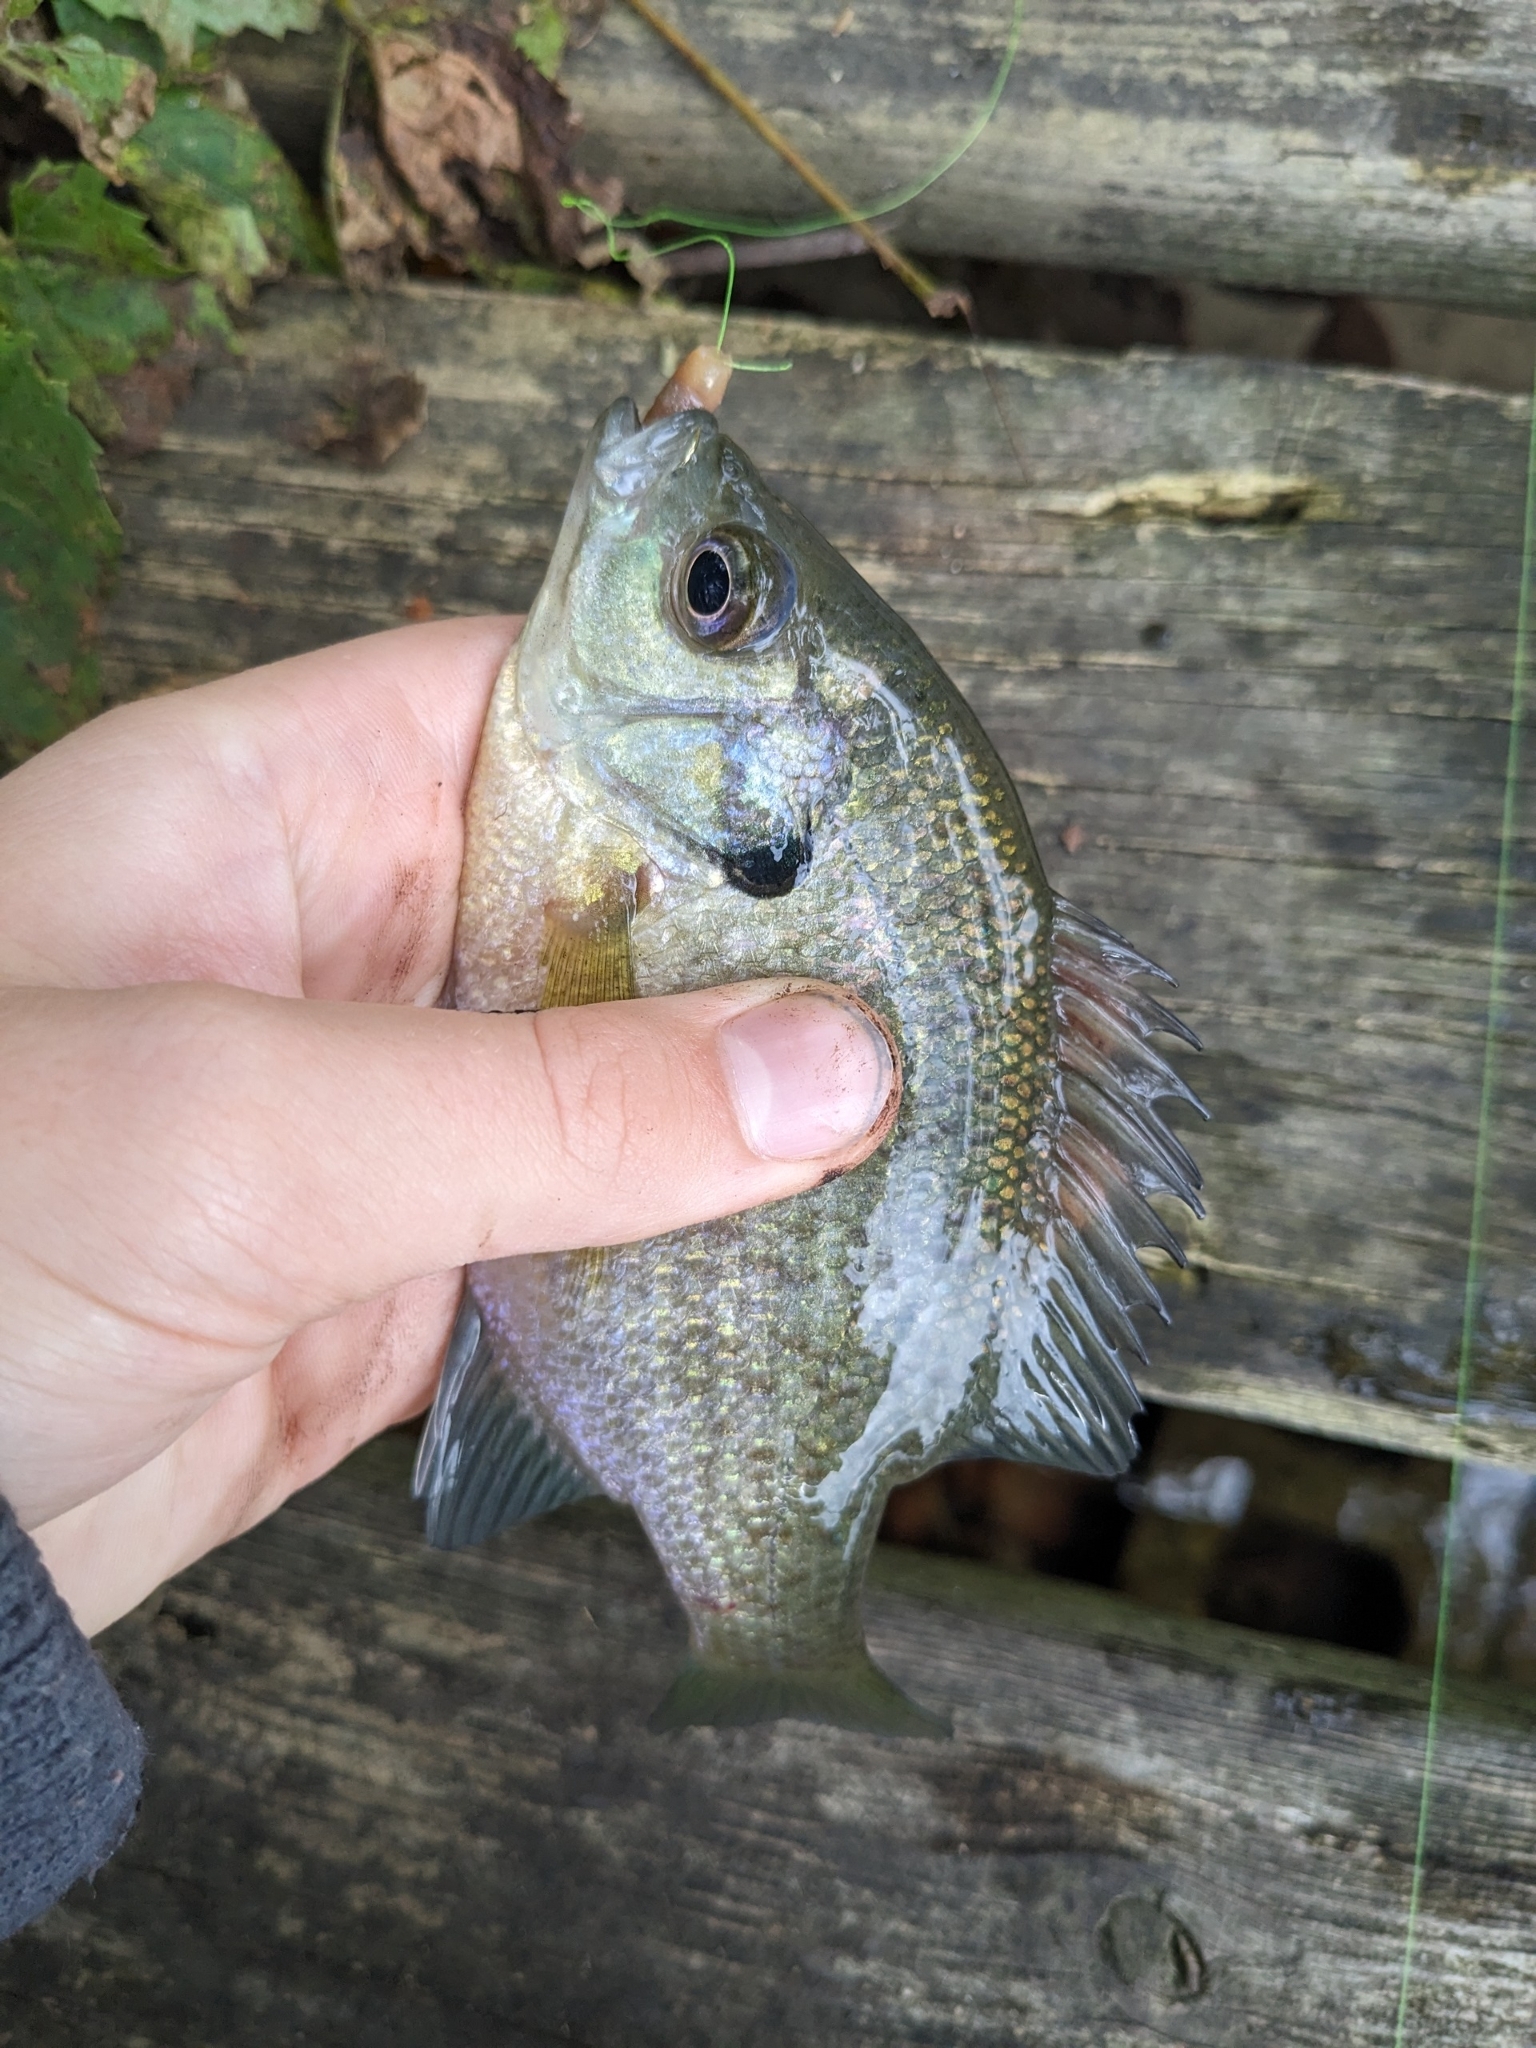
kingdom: Animalia
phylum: Chordata
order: Perciformes
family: Centrarchidae
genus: Lepomis
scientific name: Lepomis macrochirus
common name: Bluegill
